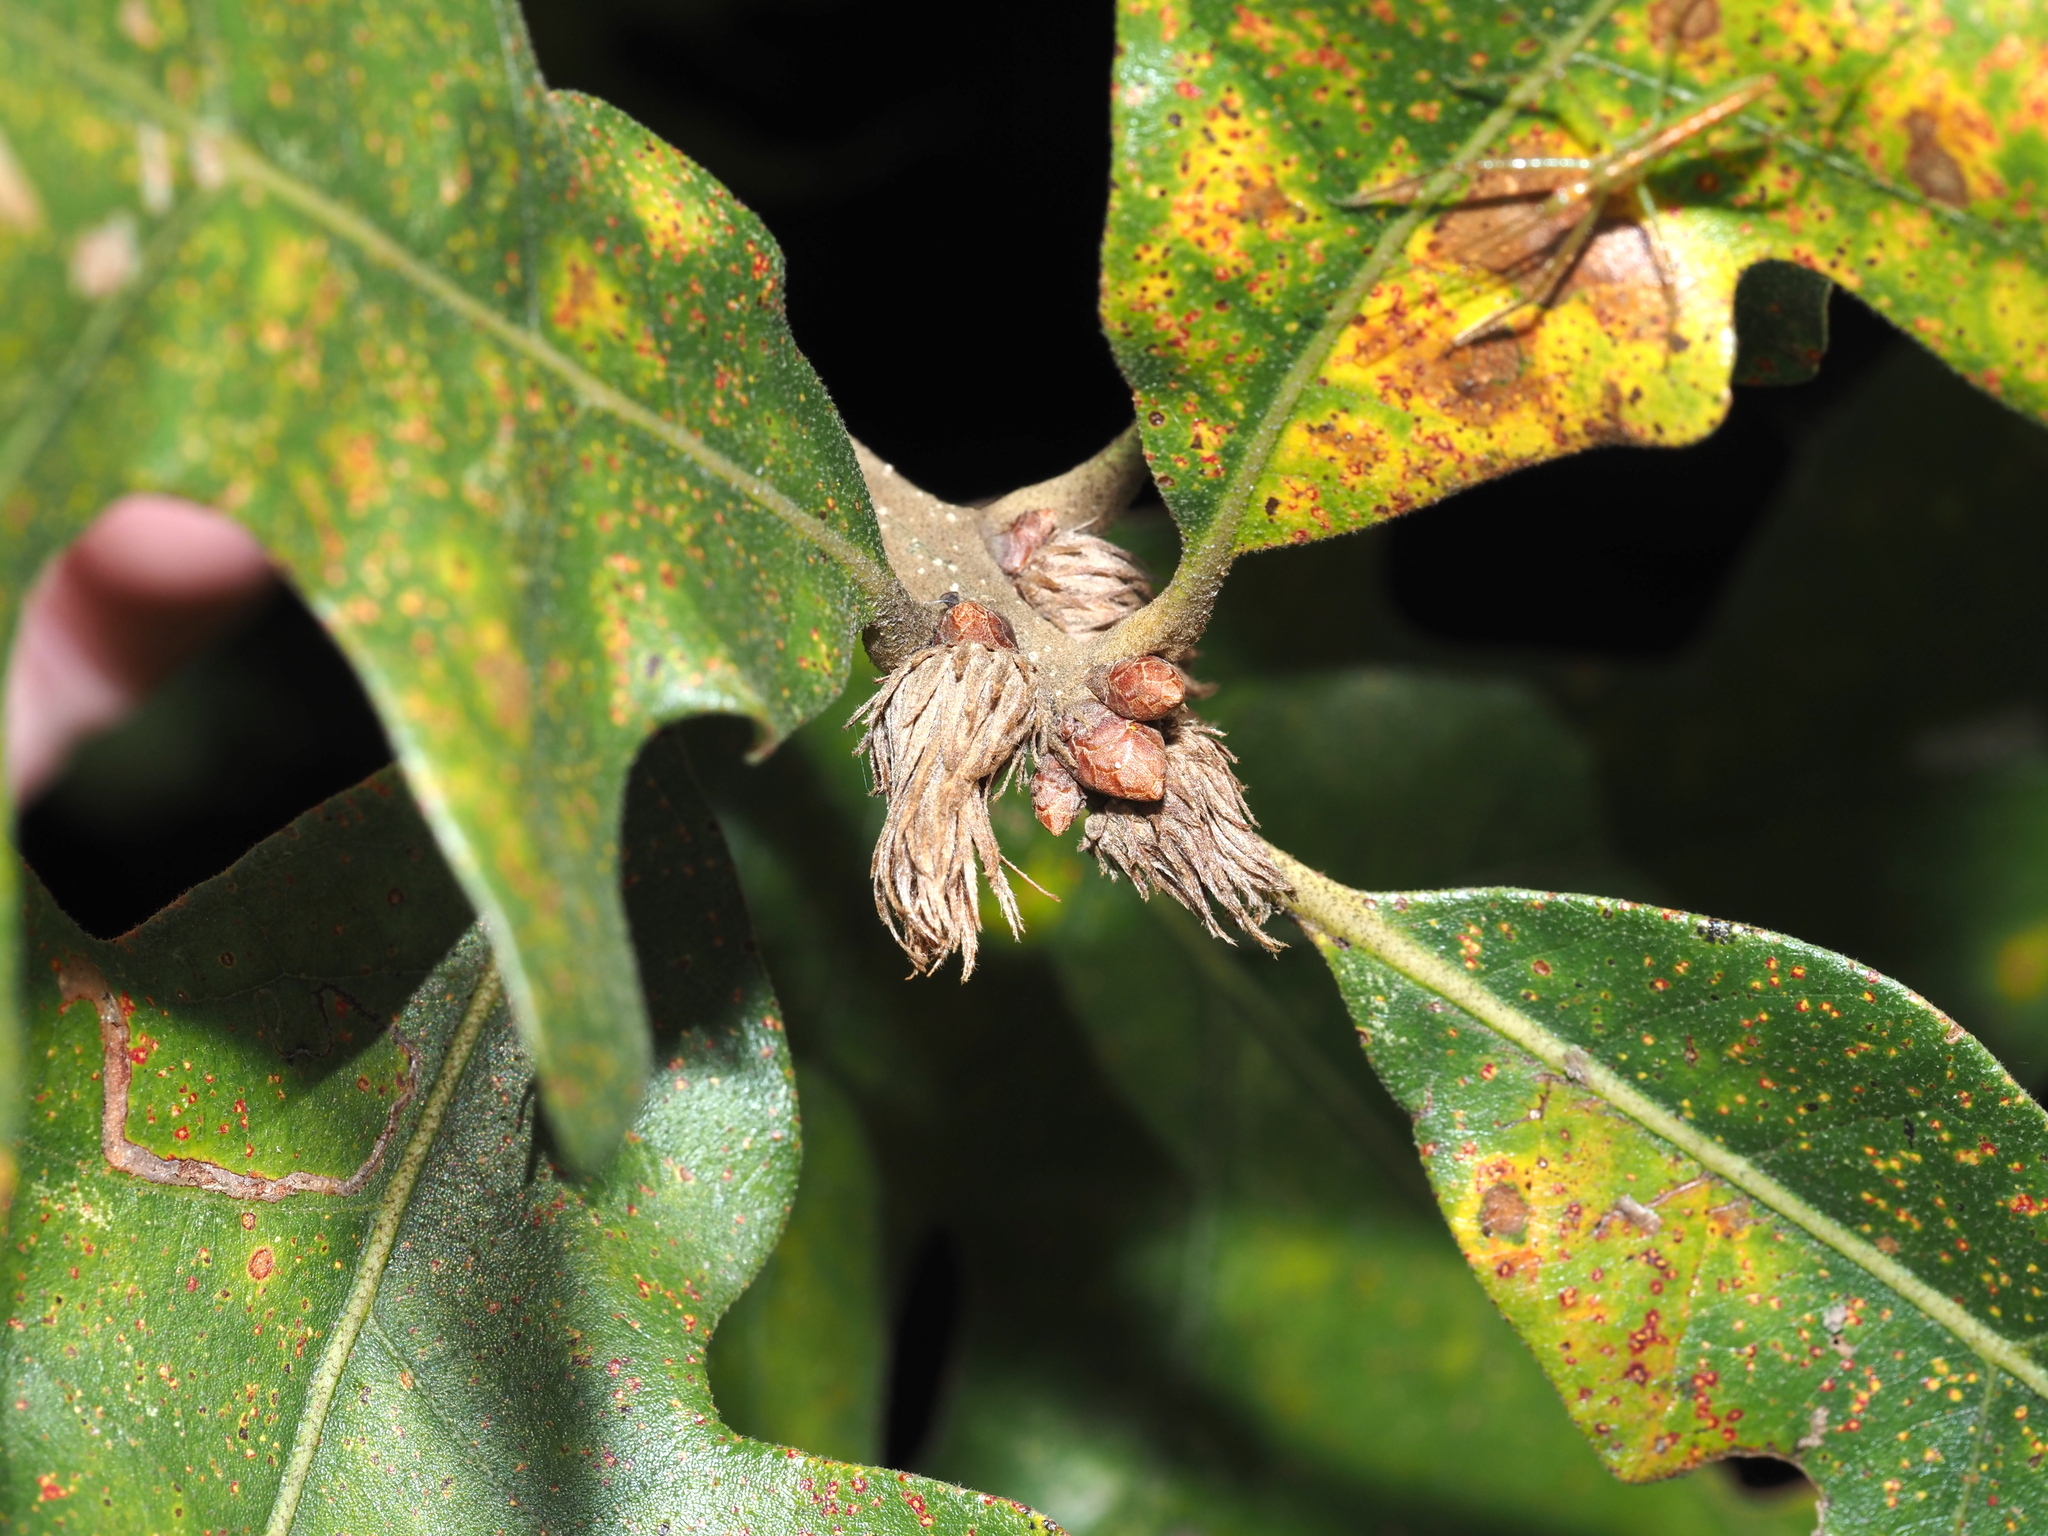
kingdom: Animalia
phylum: Arthropoda
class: Insecta
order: Hymenoptera
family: Cynipidae
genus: Andricus
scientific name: Andricus
